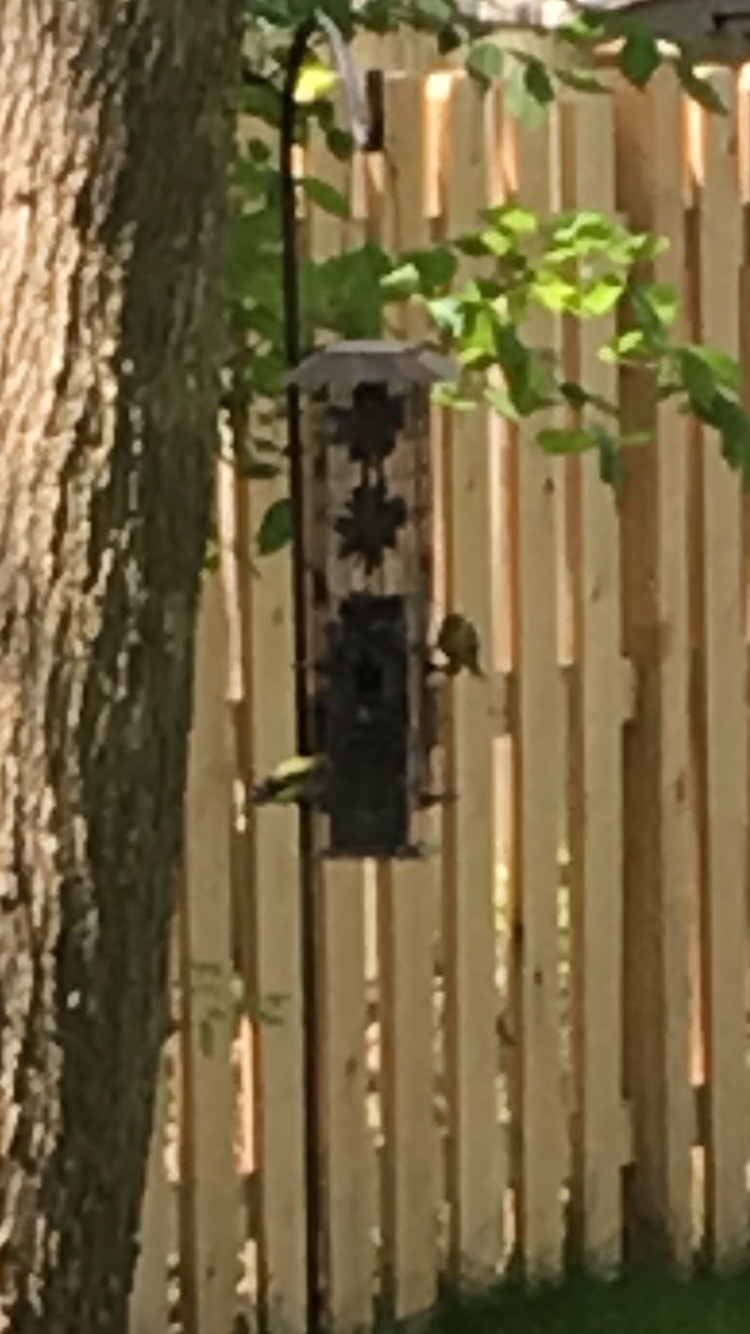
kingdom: Animalia
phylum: Chordata
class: Aves
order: Passeriformes
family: Fringillidae
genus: Spinus
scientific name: Spinus tristis
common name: American goldfinch
